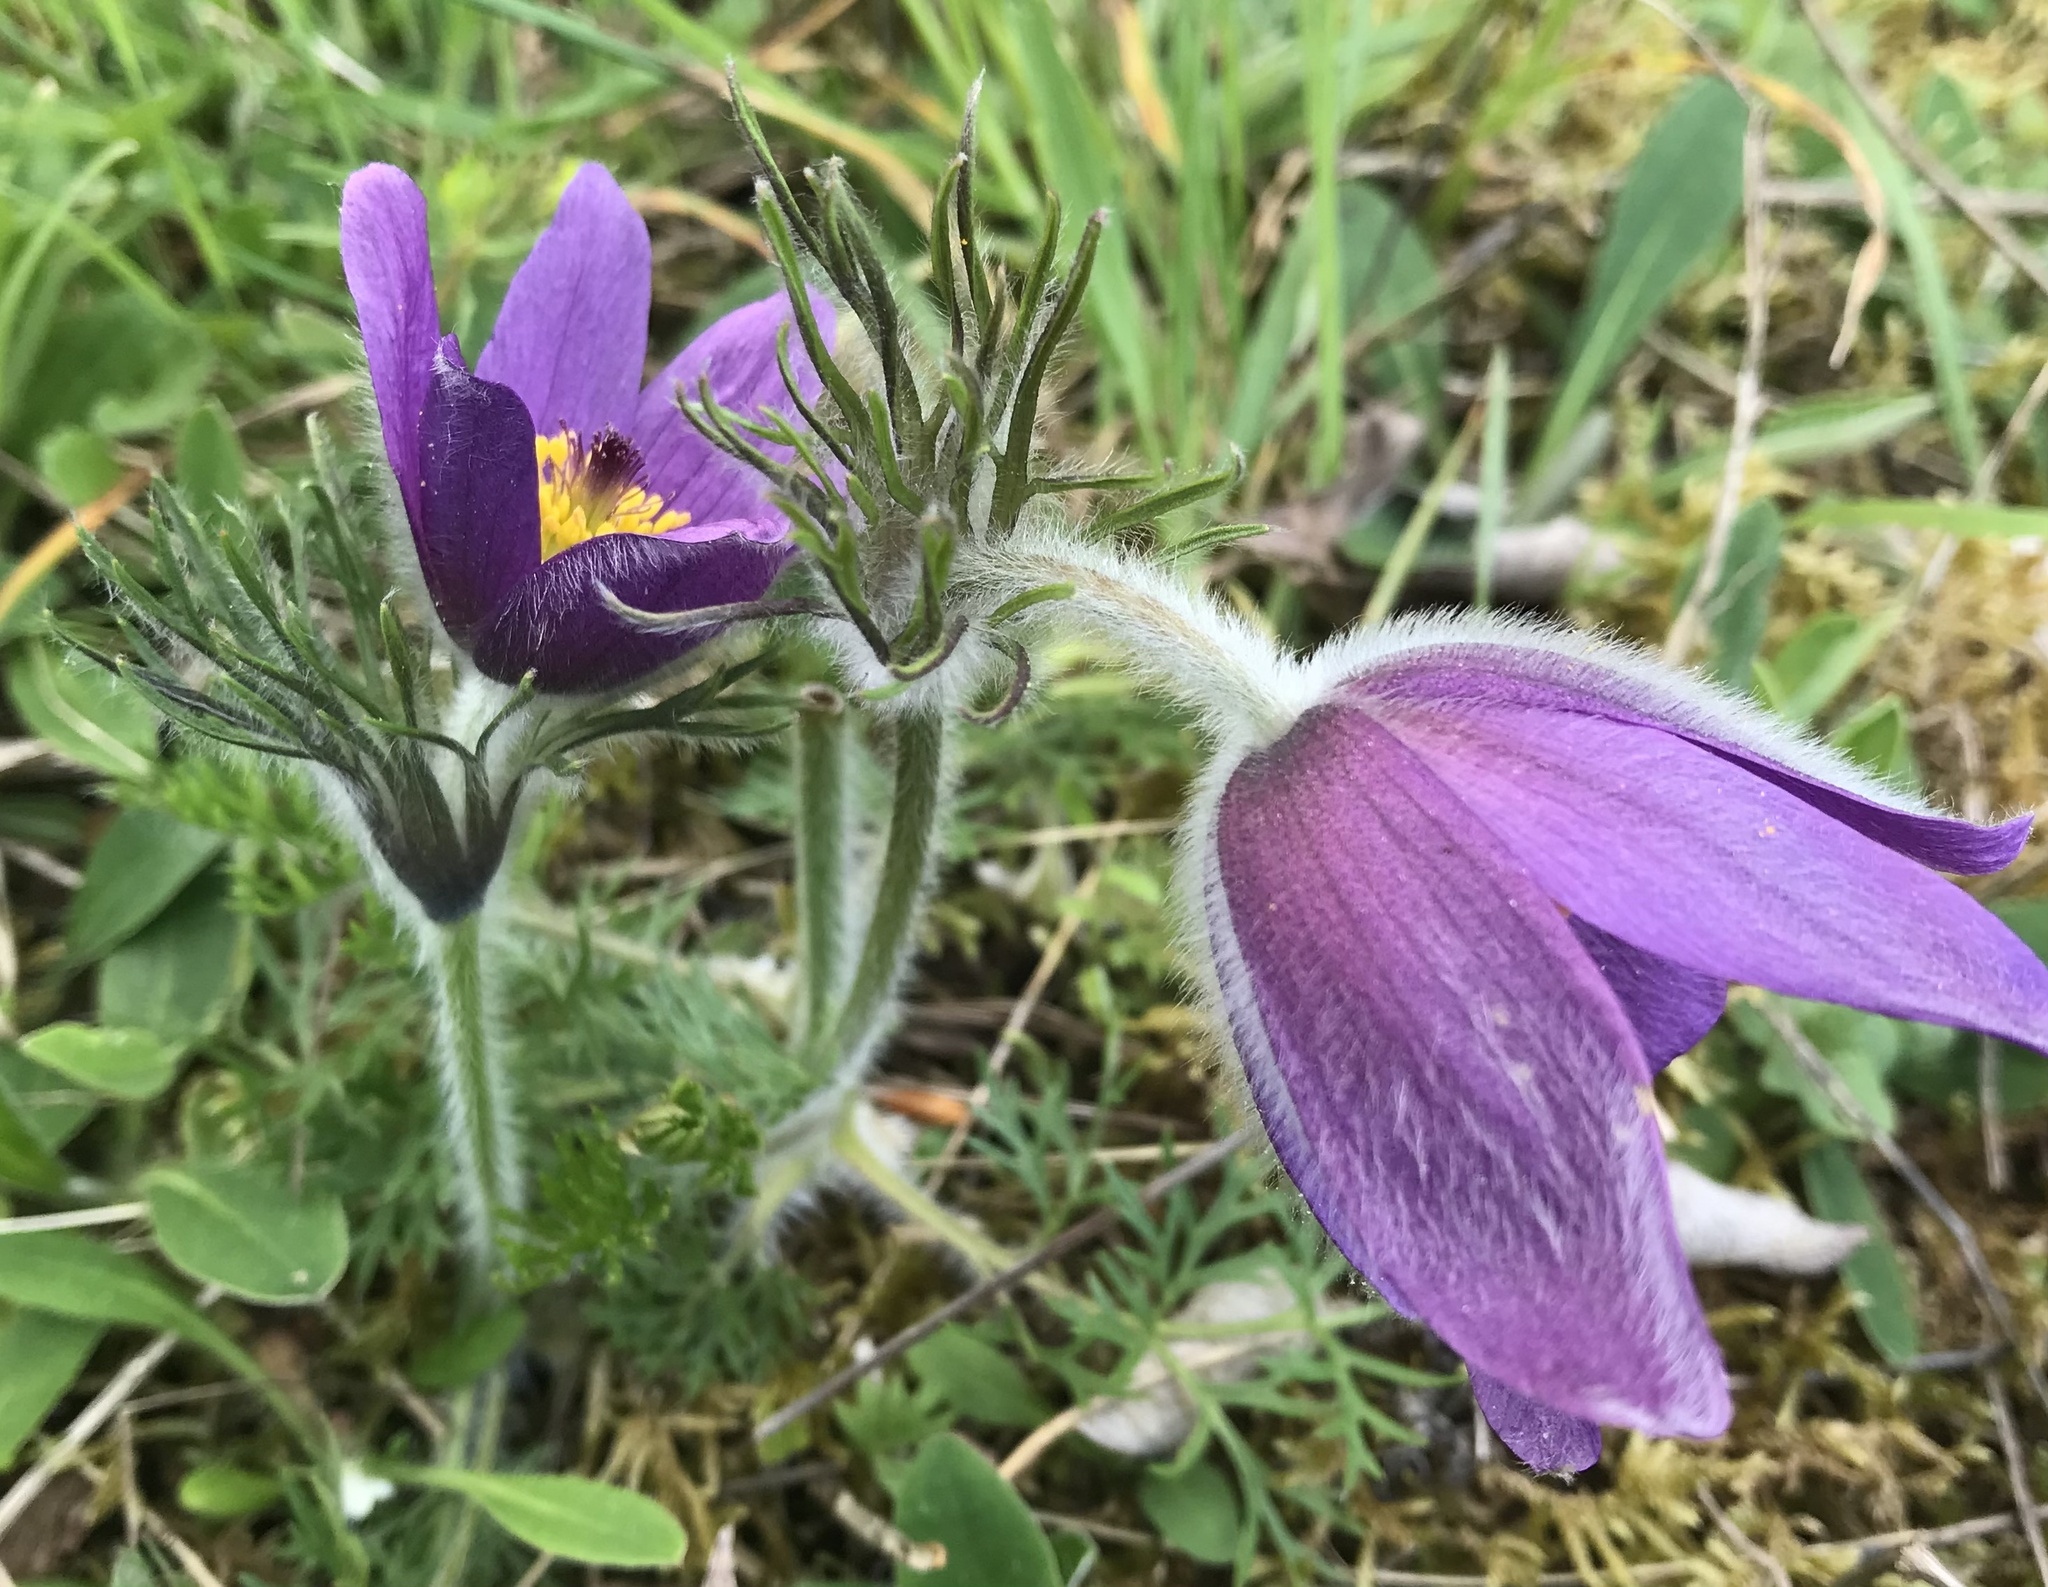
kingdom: Plantae
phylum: Tracheophyta
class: Magnoliopsida
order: Ranunculales
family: Ranunculaceae
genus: Pulsatilla
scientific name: Pulsatilla vulgaris
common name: Pasqueflower
